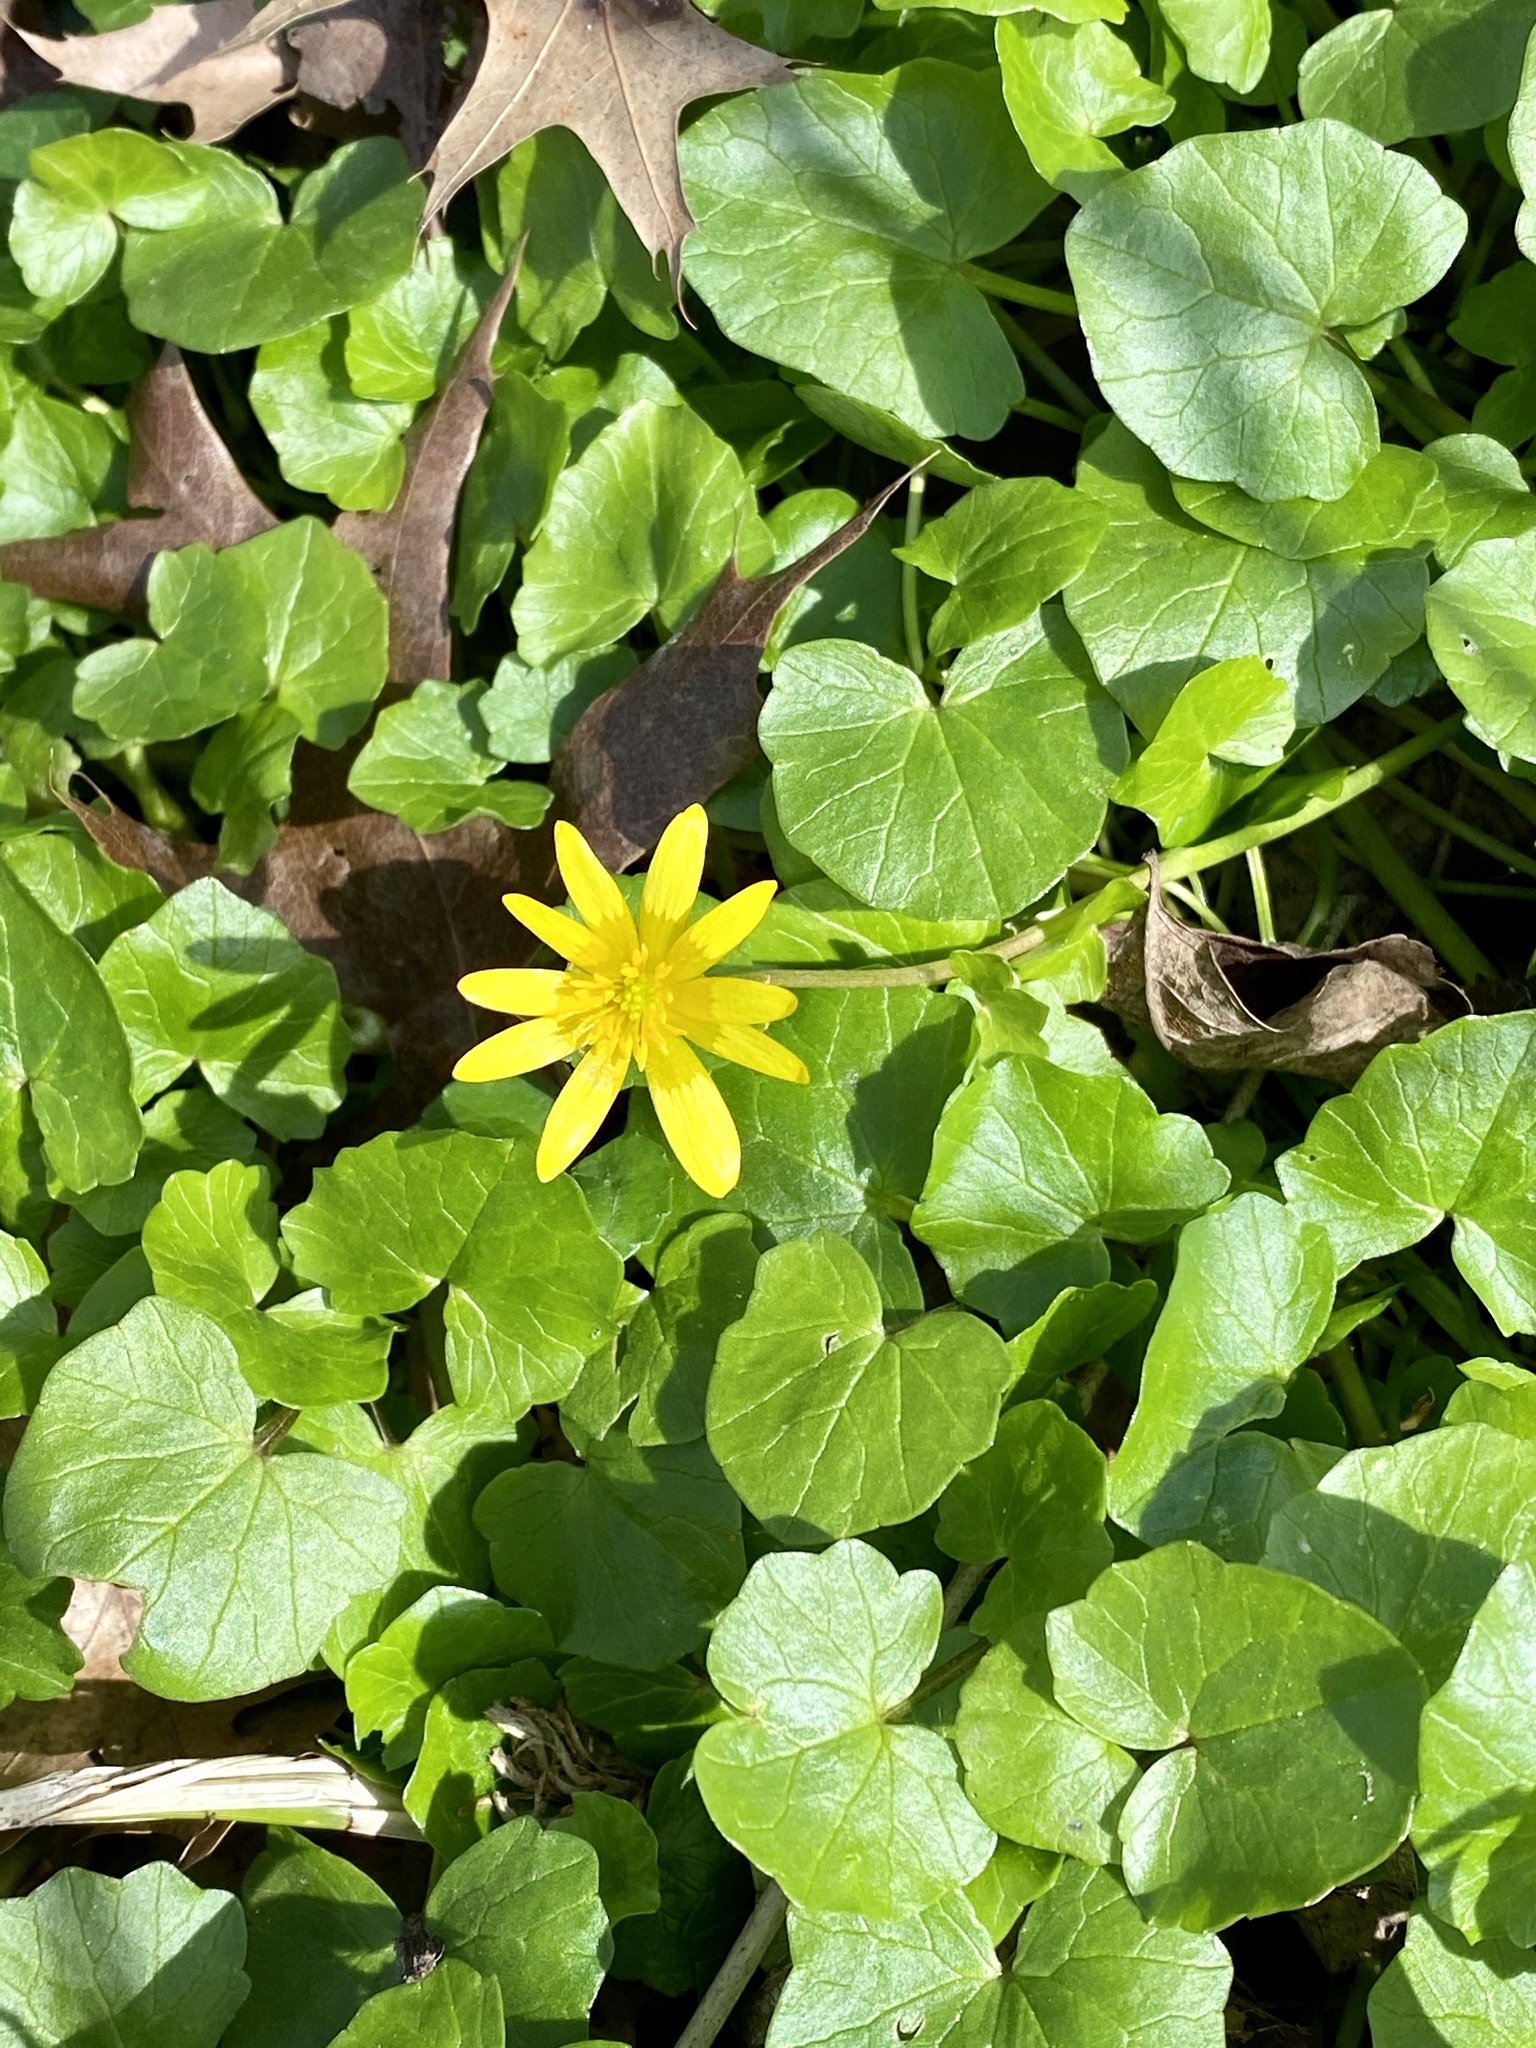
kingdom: Plantae
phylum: Tracheophyta
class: Magnoliopsida
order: Ranunculales
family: Ranunculaceae
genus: Ficaria
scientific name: Ficaria verna
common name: Lesser celandine
